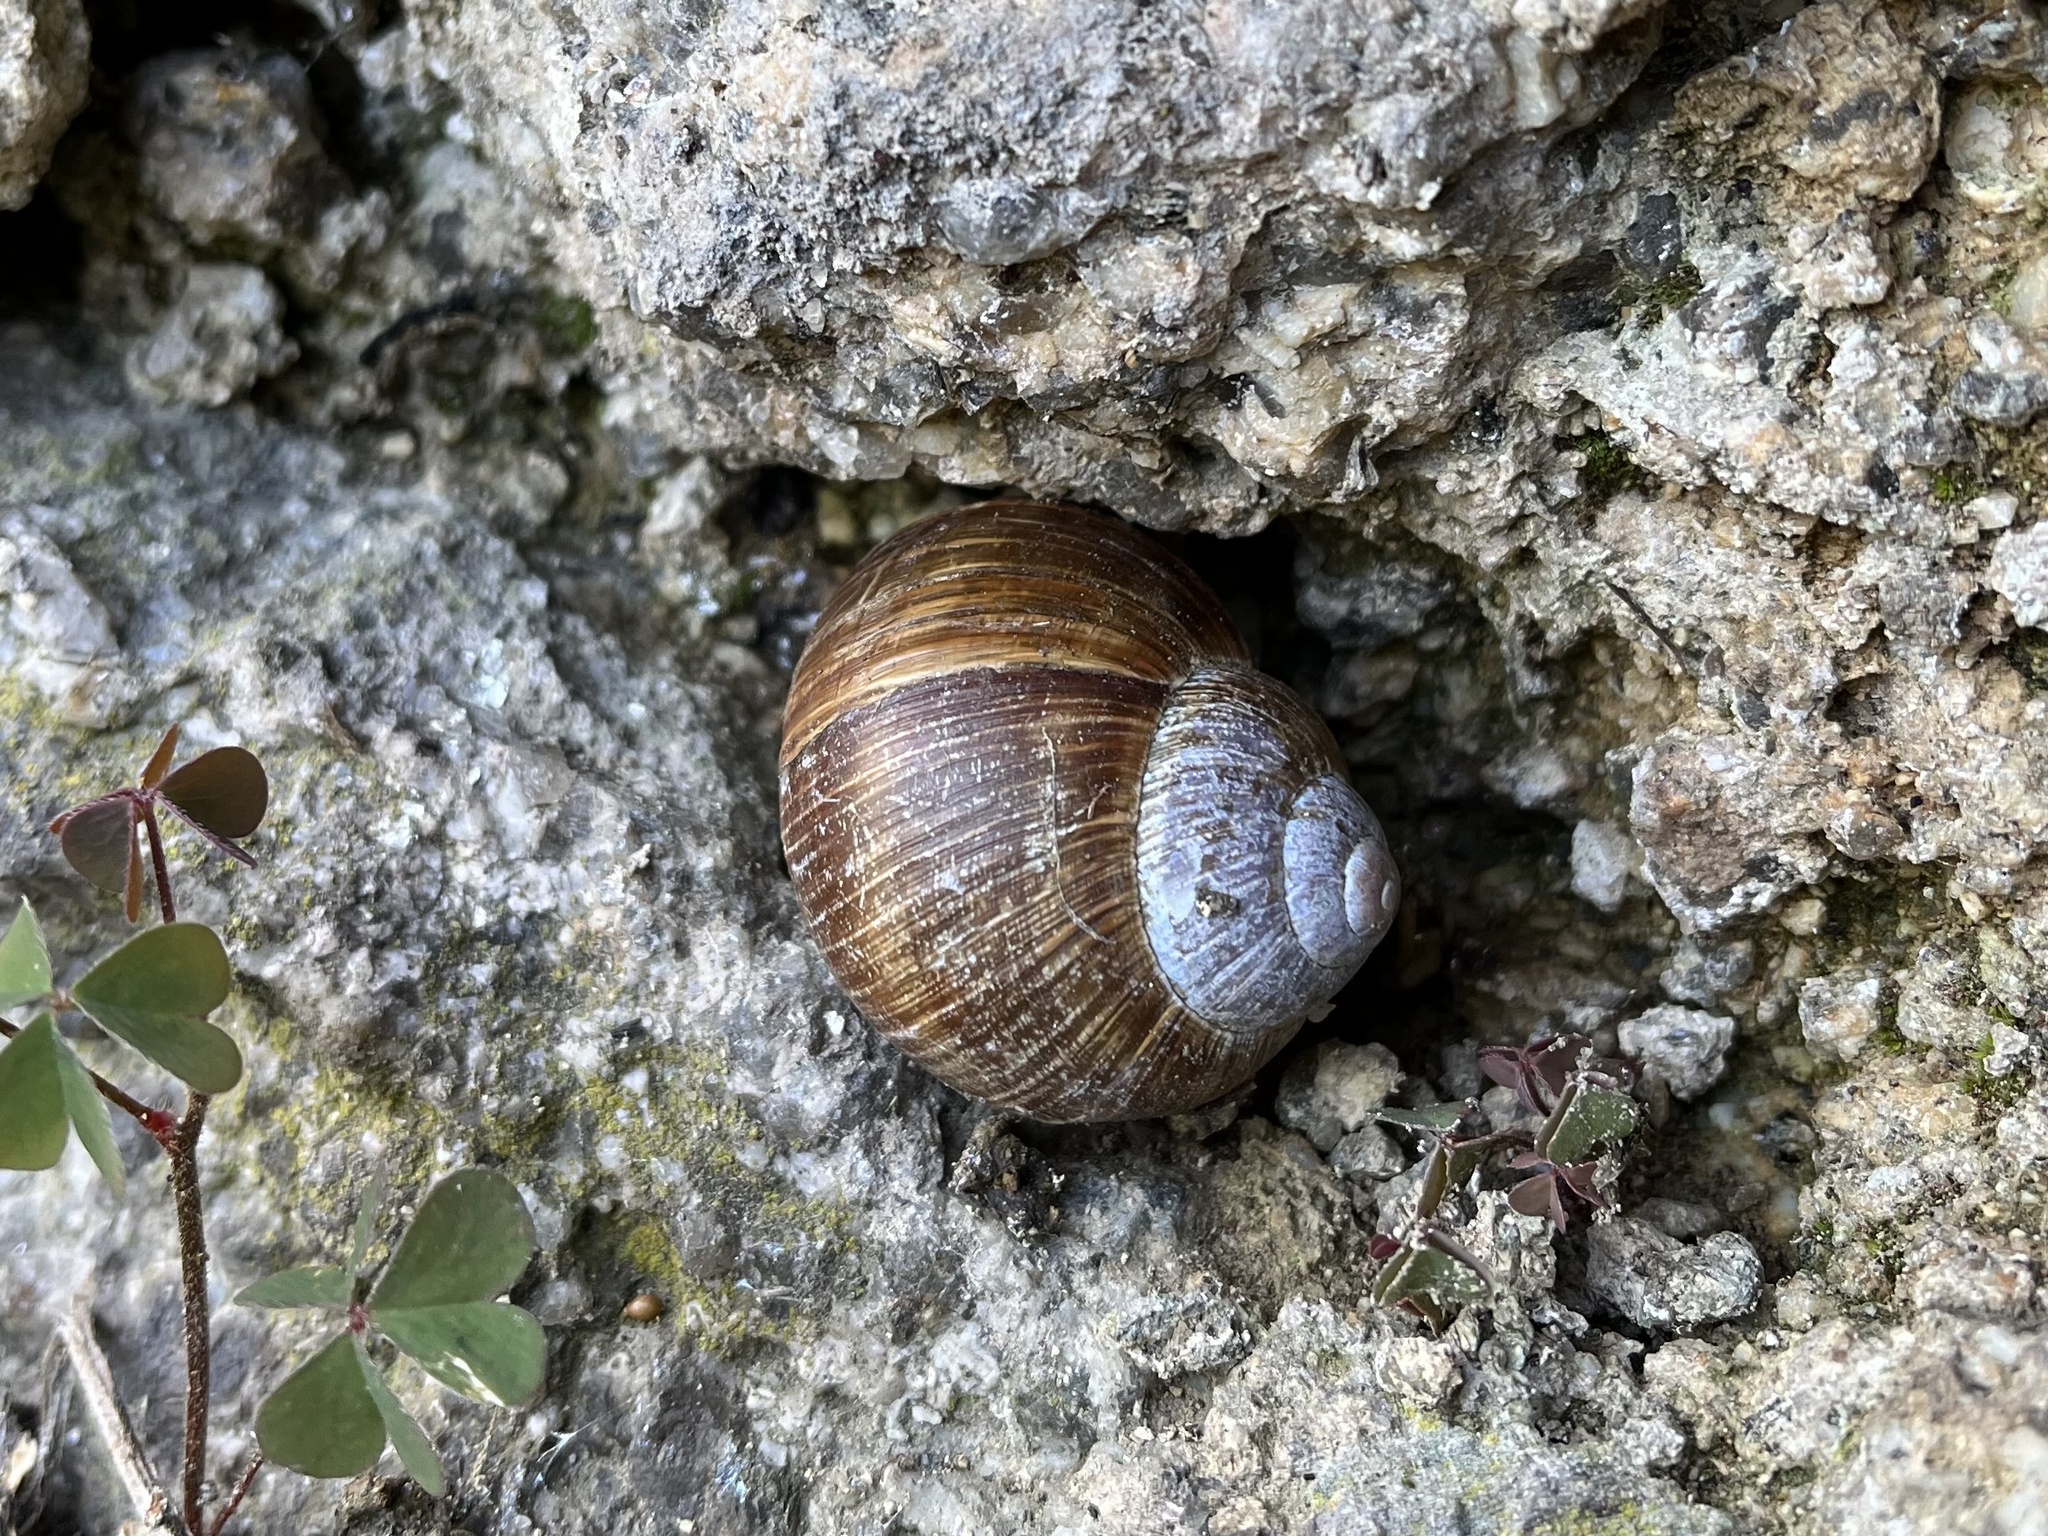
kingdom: Animalia
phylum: Mollusca
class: Gastropoda
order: Stylommatophora
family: Helicidae
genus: Helix
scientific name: Helix pomatia
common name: Roman snail
